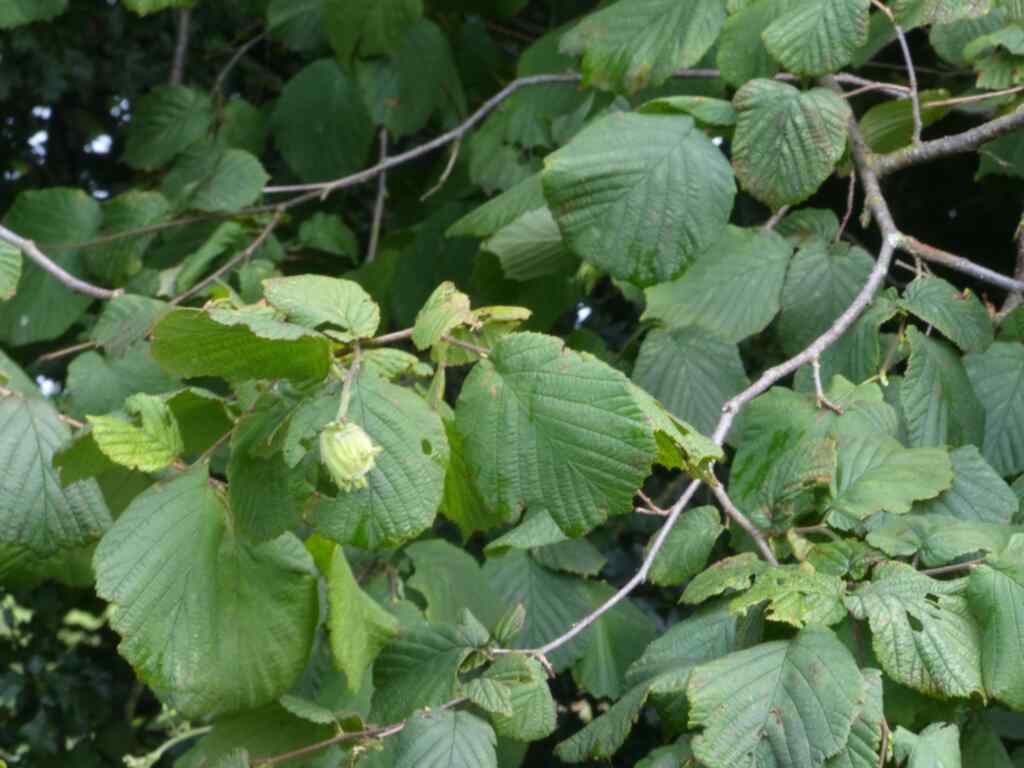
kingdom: Plantae
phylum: Tracheophyta
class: Magnoliopsida
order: Fagales
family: Betulaceae
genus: Corylus
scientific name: Corylus avellana
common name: European hazel
